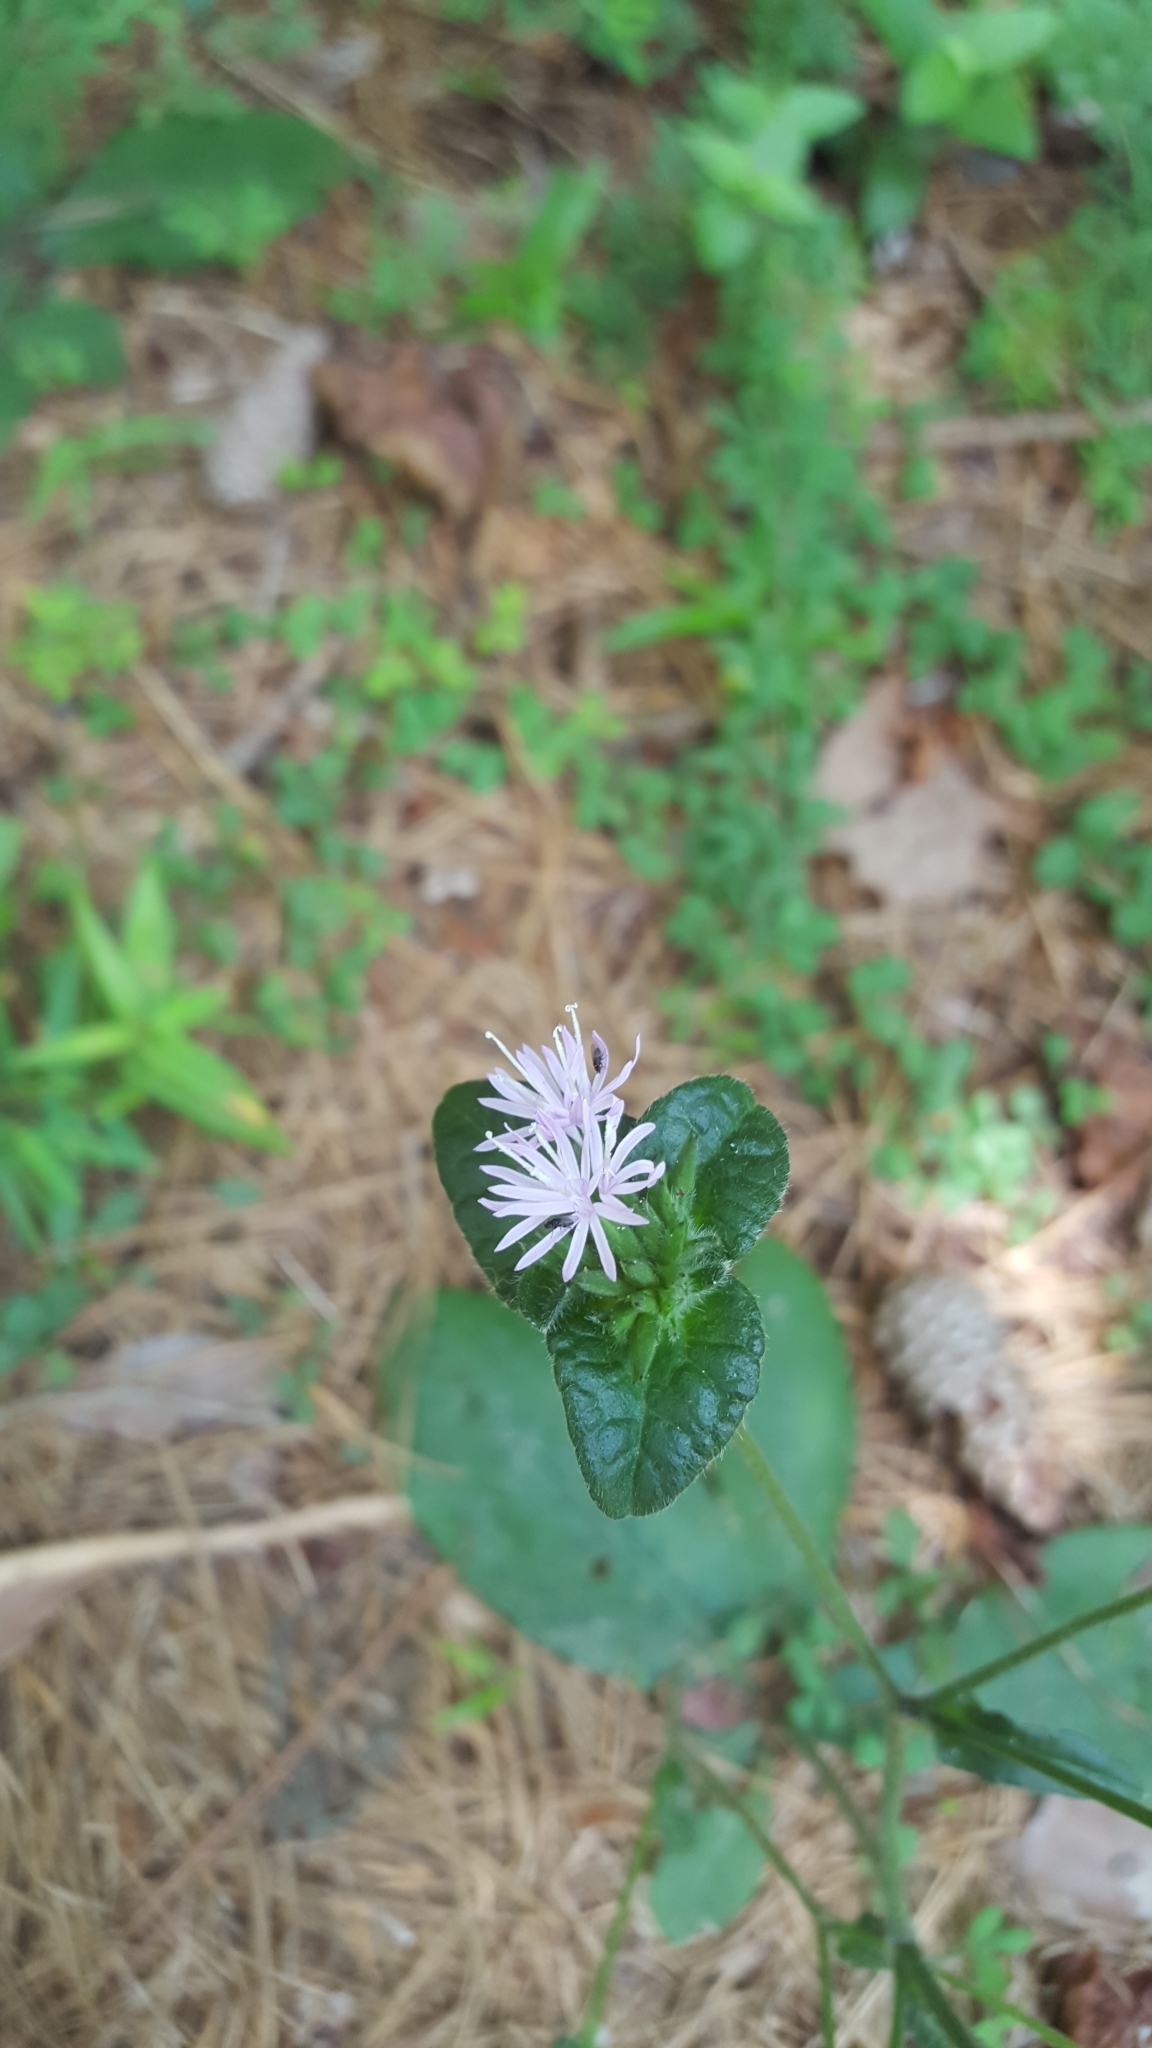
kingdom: Plantae
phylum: Tracheophyta
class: Magnoliopsida
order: Asterales
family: Asteraceae
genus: Elephantopus
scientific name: Elephantopus tomentosus
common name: Tobacco-weed
